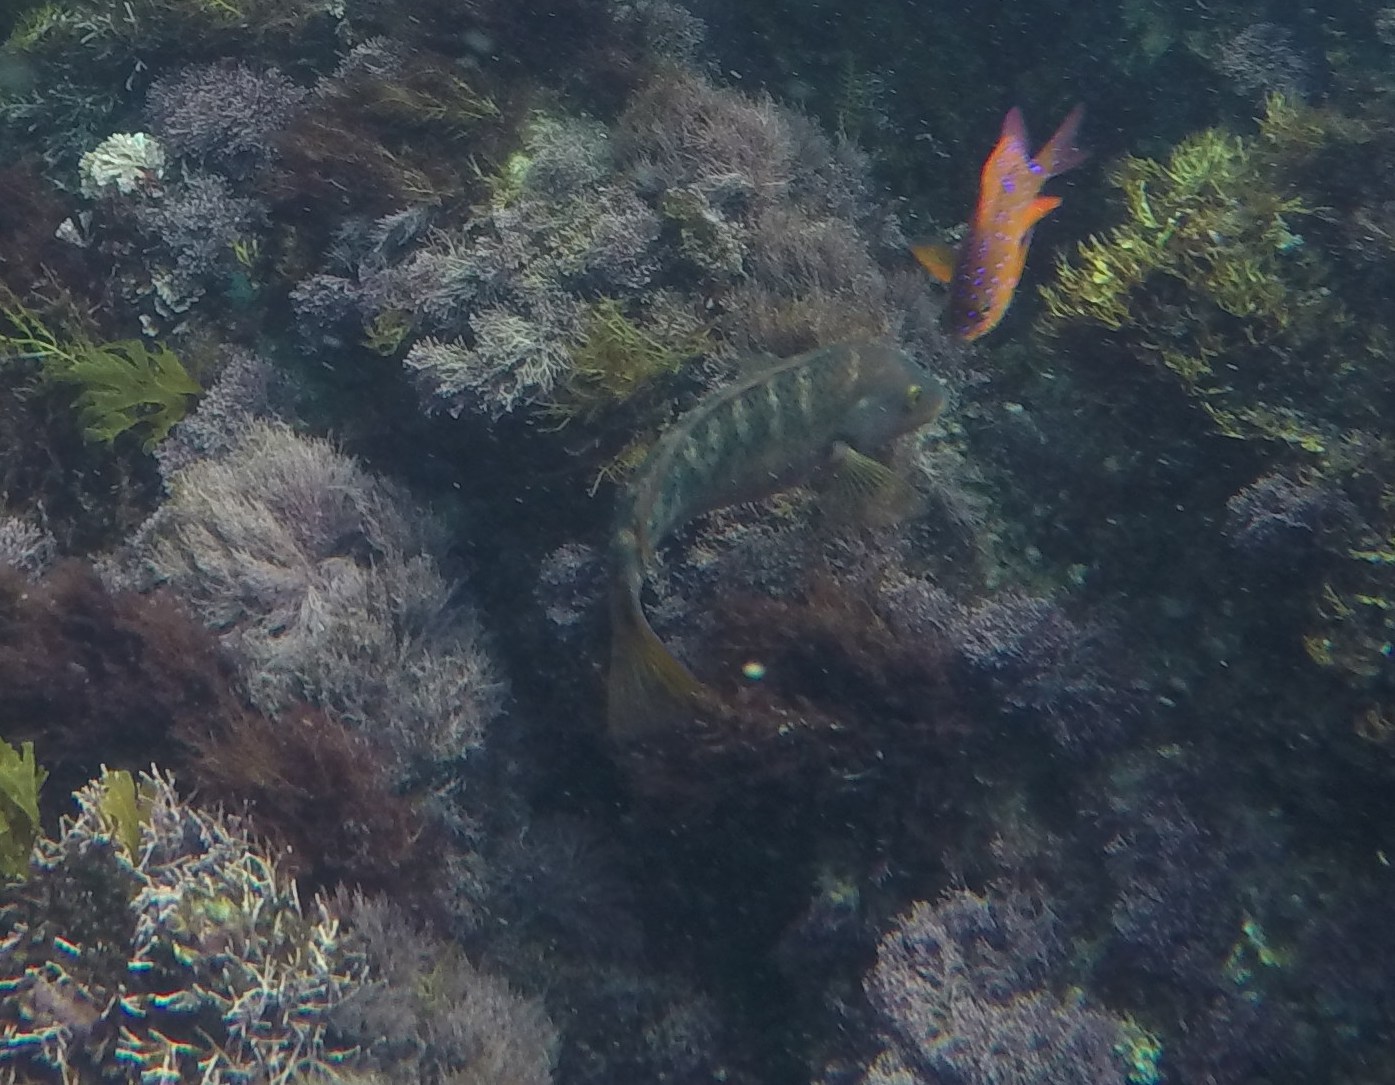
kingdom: Animalia
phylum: Chordata
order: Perciformes
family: Labridae
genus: Halichoeres
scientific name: Halichoeres semicinctus
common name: Rock wrasse
